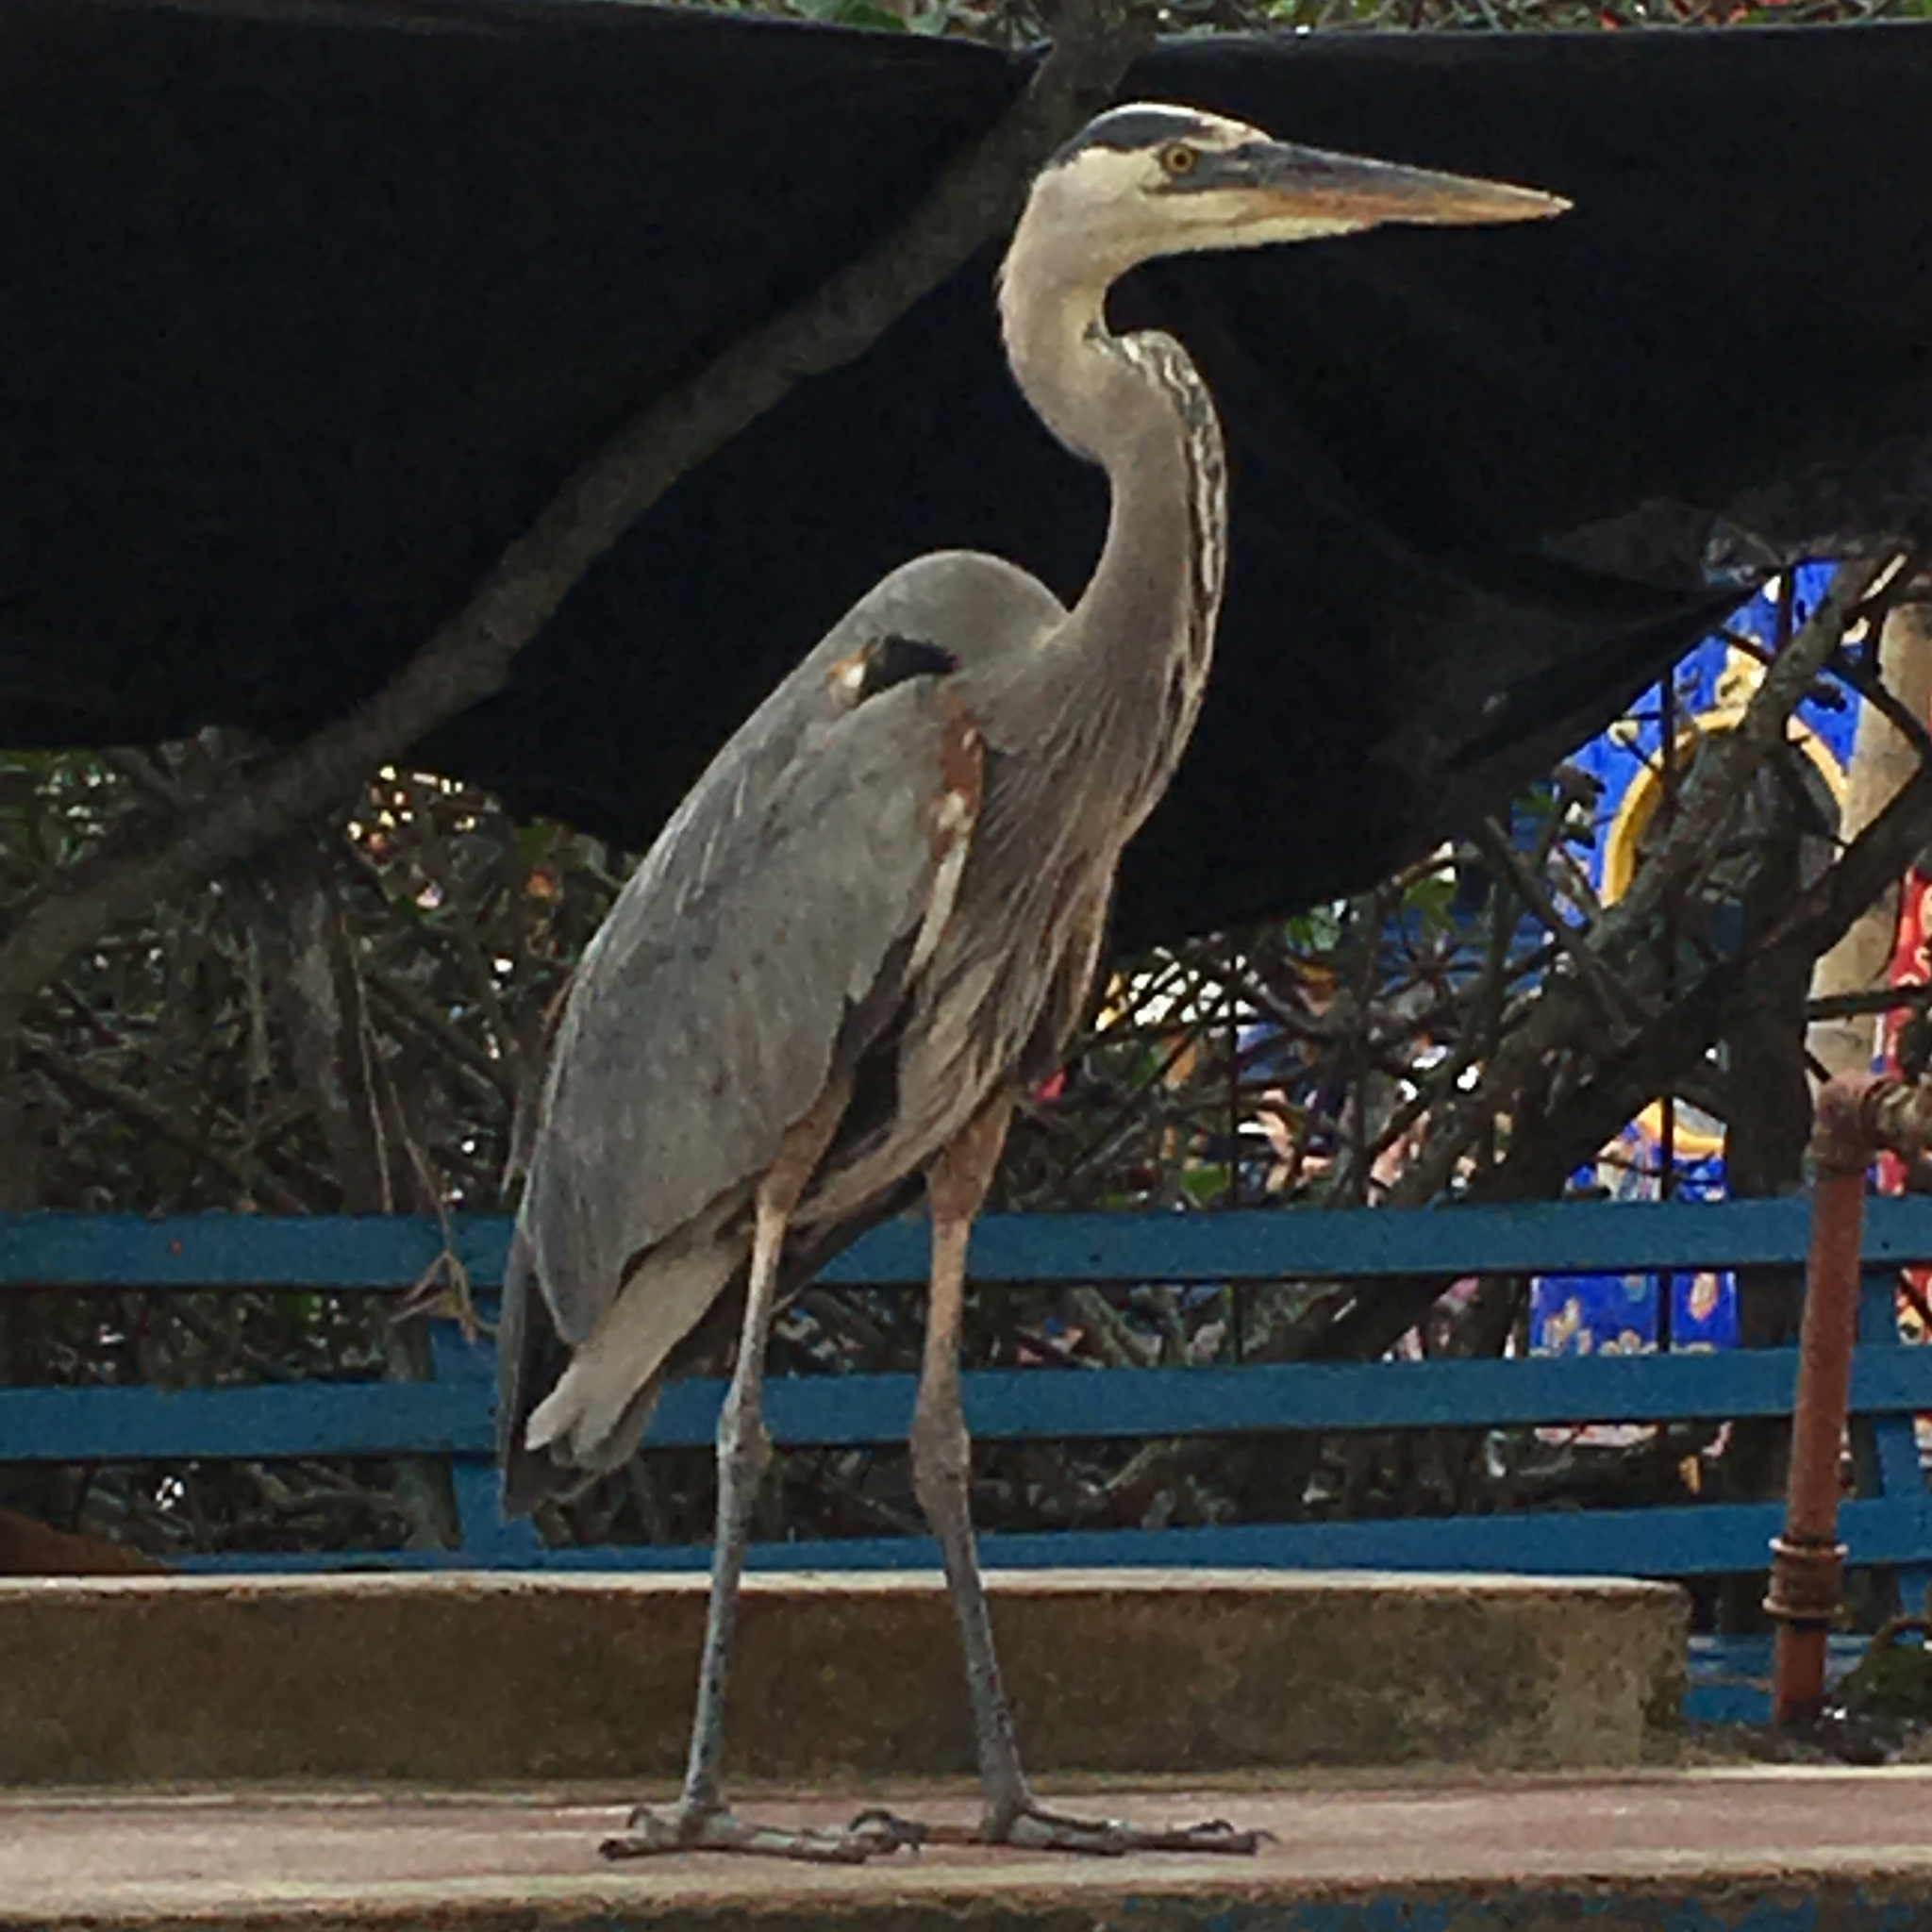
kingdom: Animalia
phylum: Chordata
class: Aves
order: Pelecaniformes
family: Ardeidae
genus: Ardea
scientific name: Ardea herodias
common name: Great blue heron
